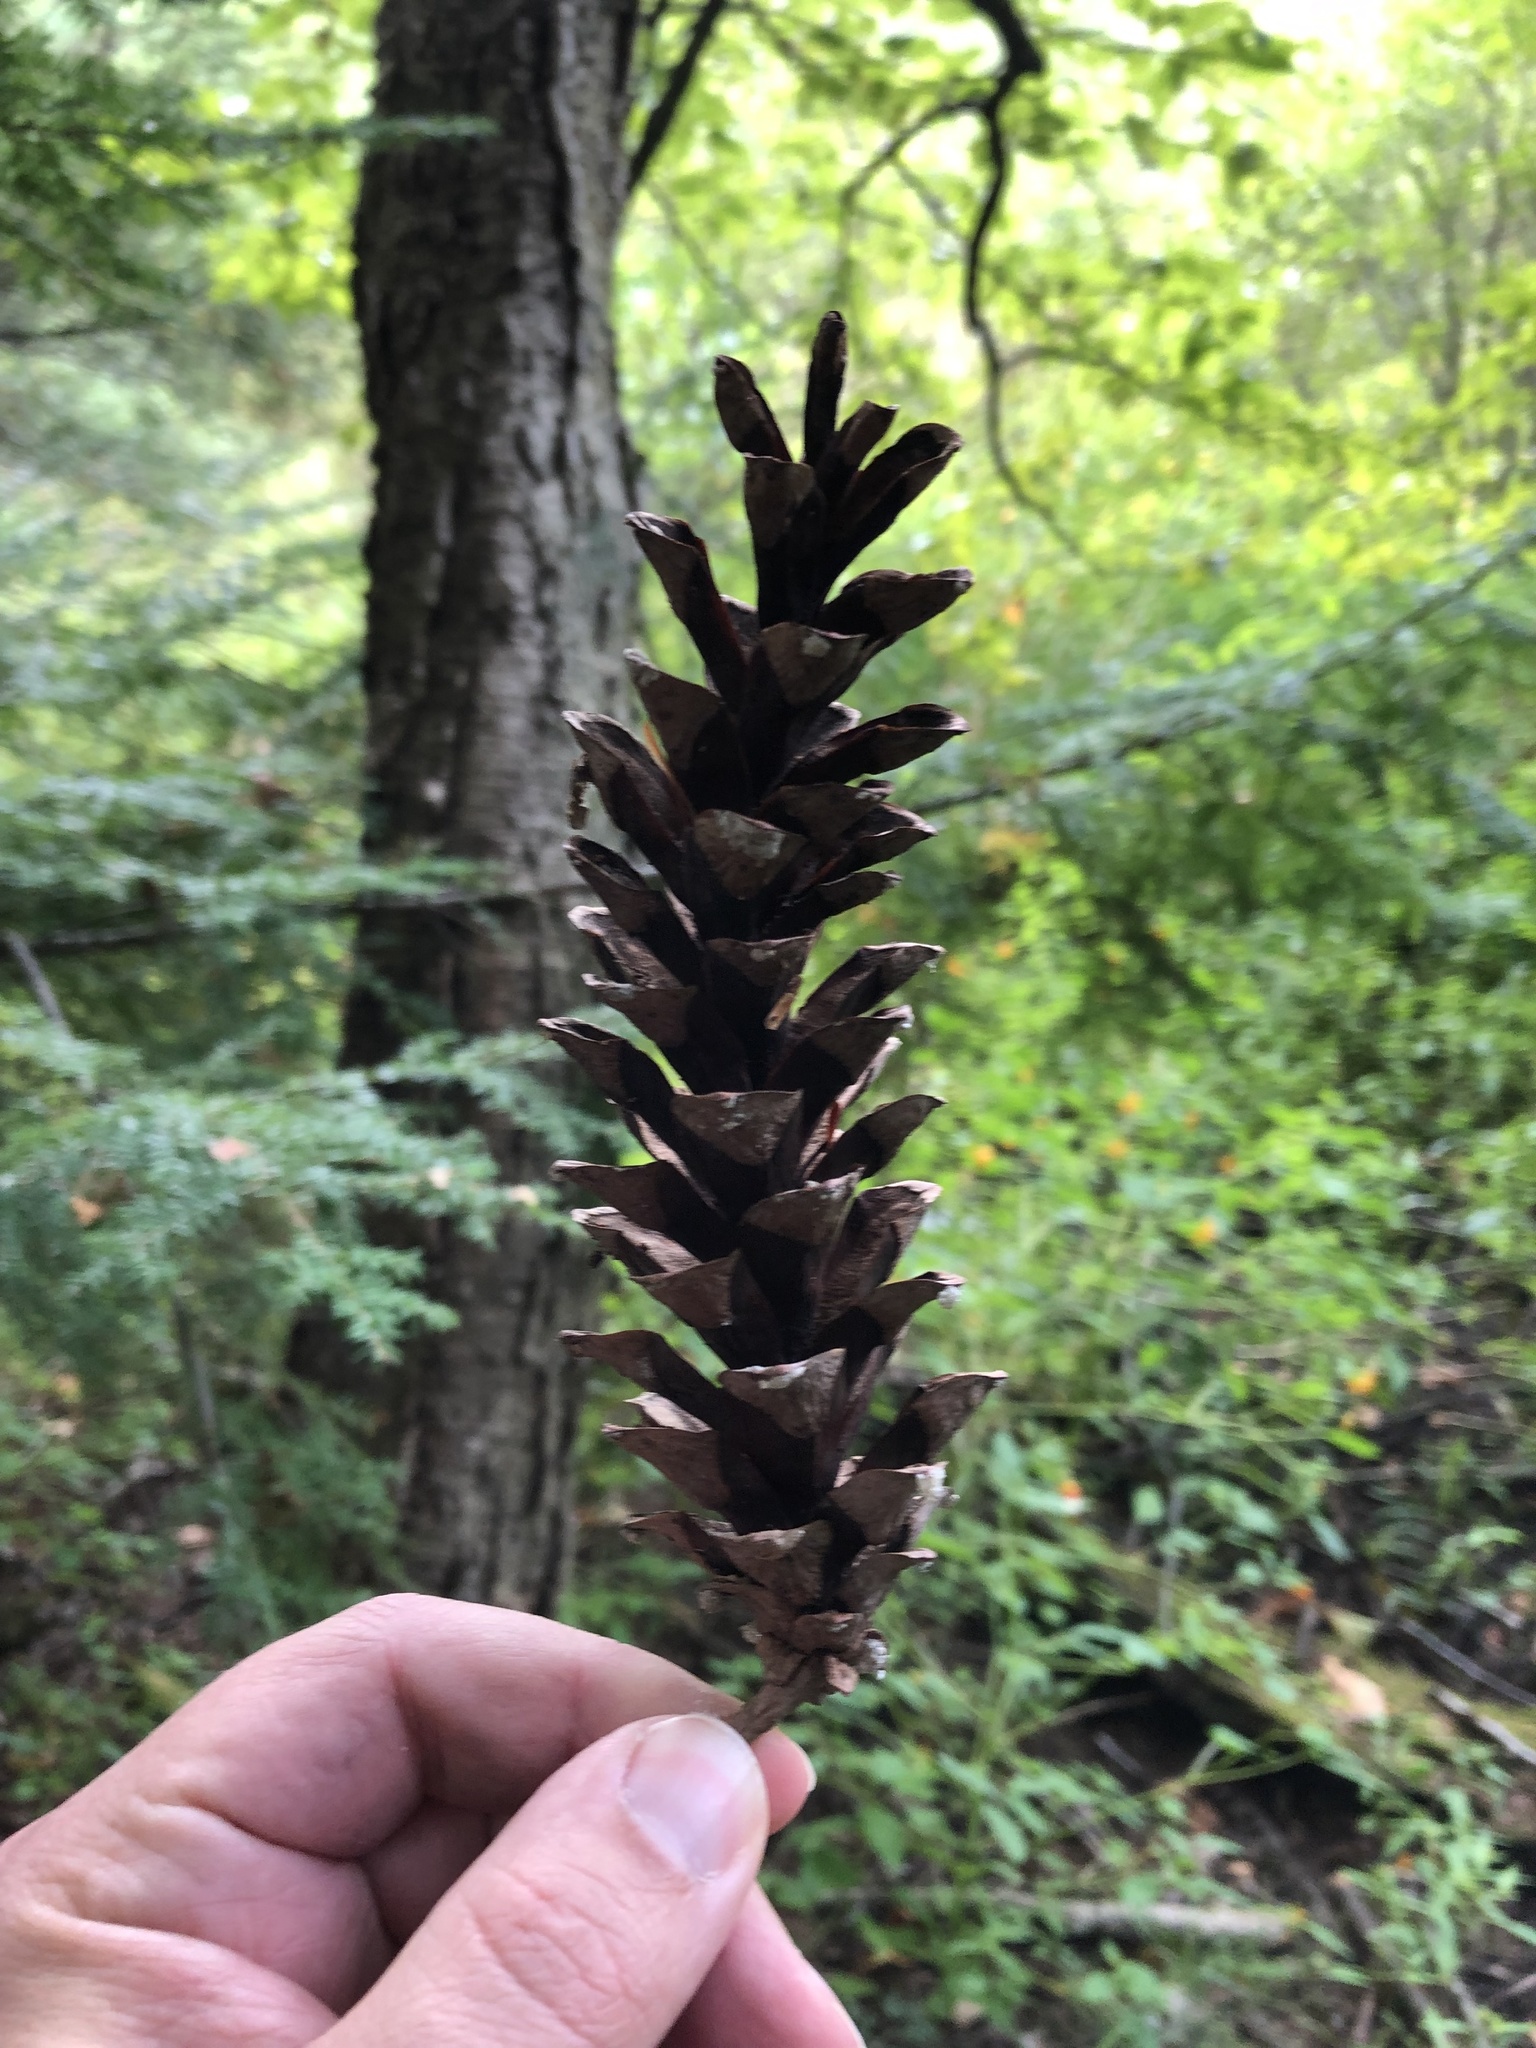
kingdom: Plantae
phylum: Tracheophyta
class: Pinopsida
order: Pinales
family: Pinaceae
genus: Pinus
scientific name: Pinus strobus
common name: Weymouth pine
